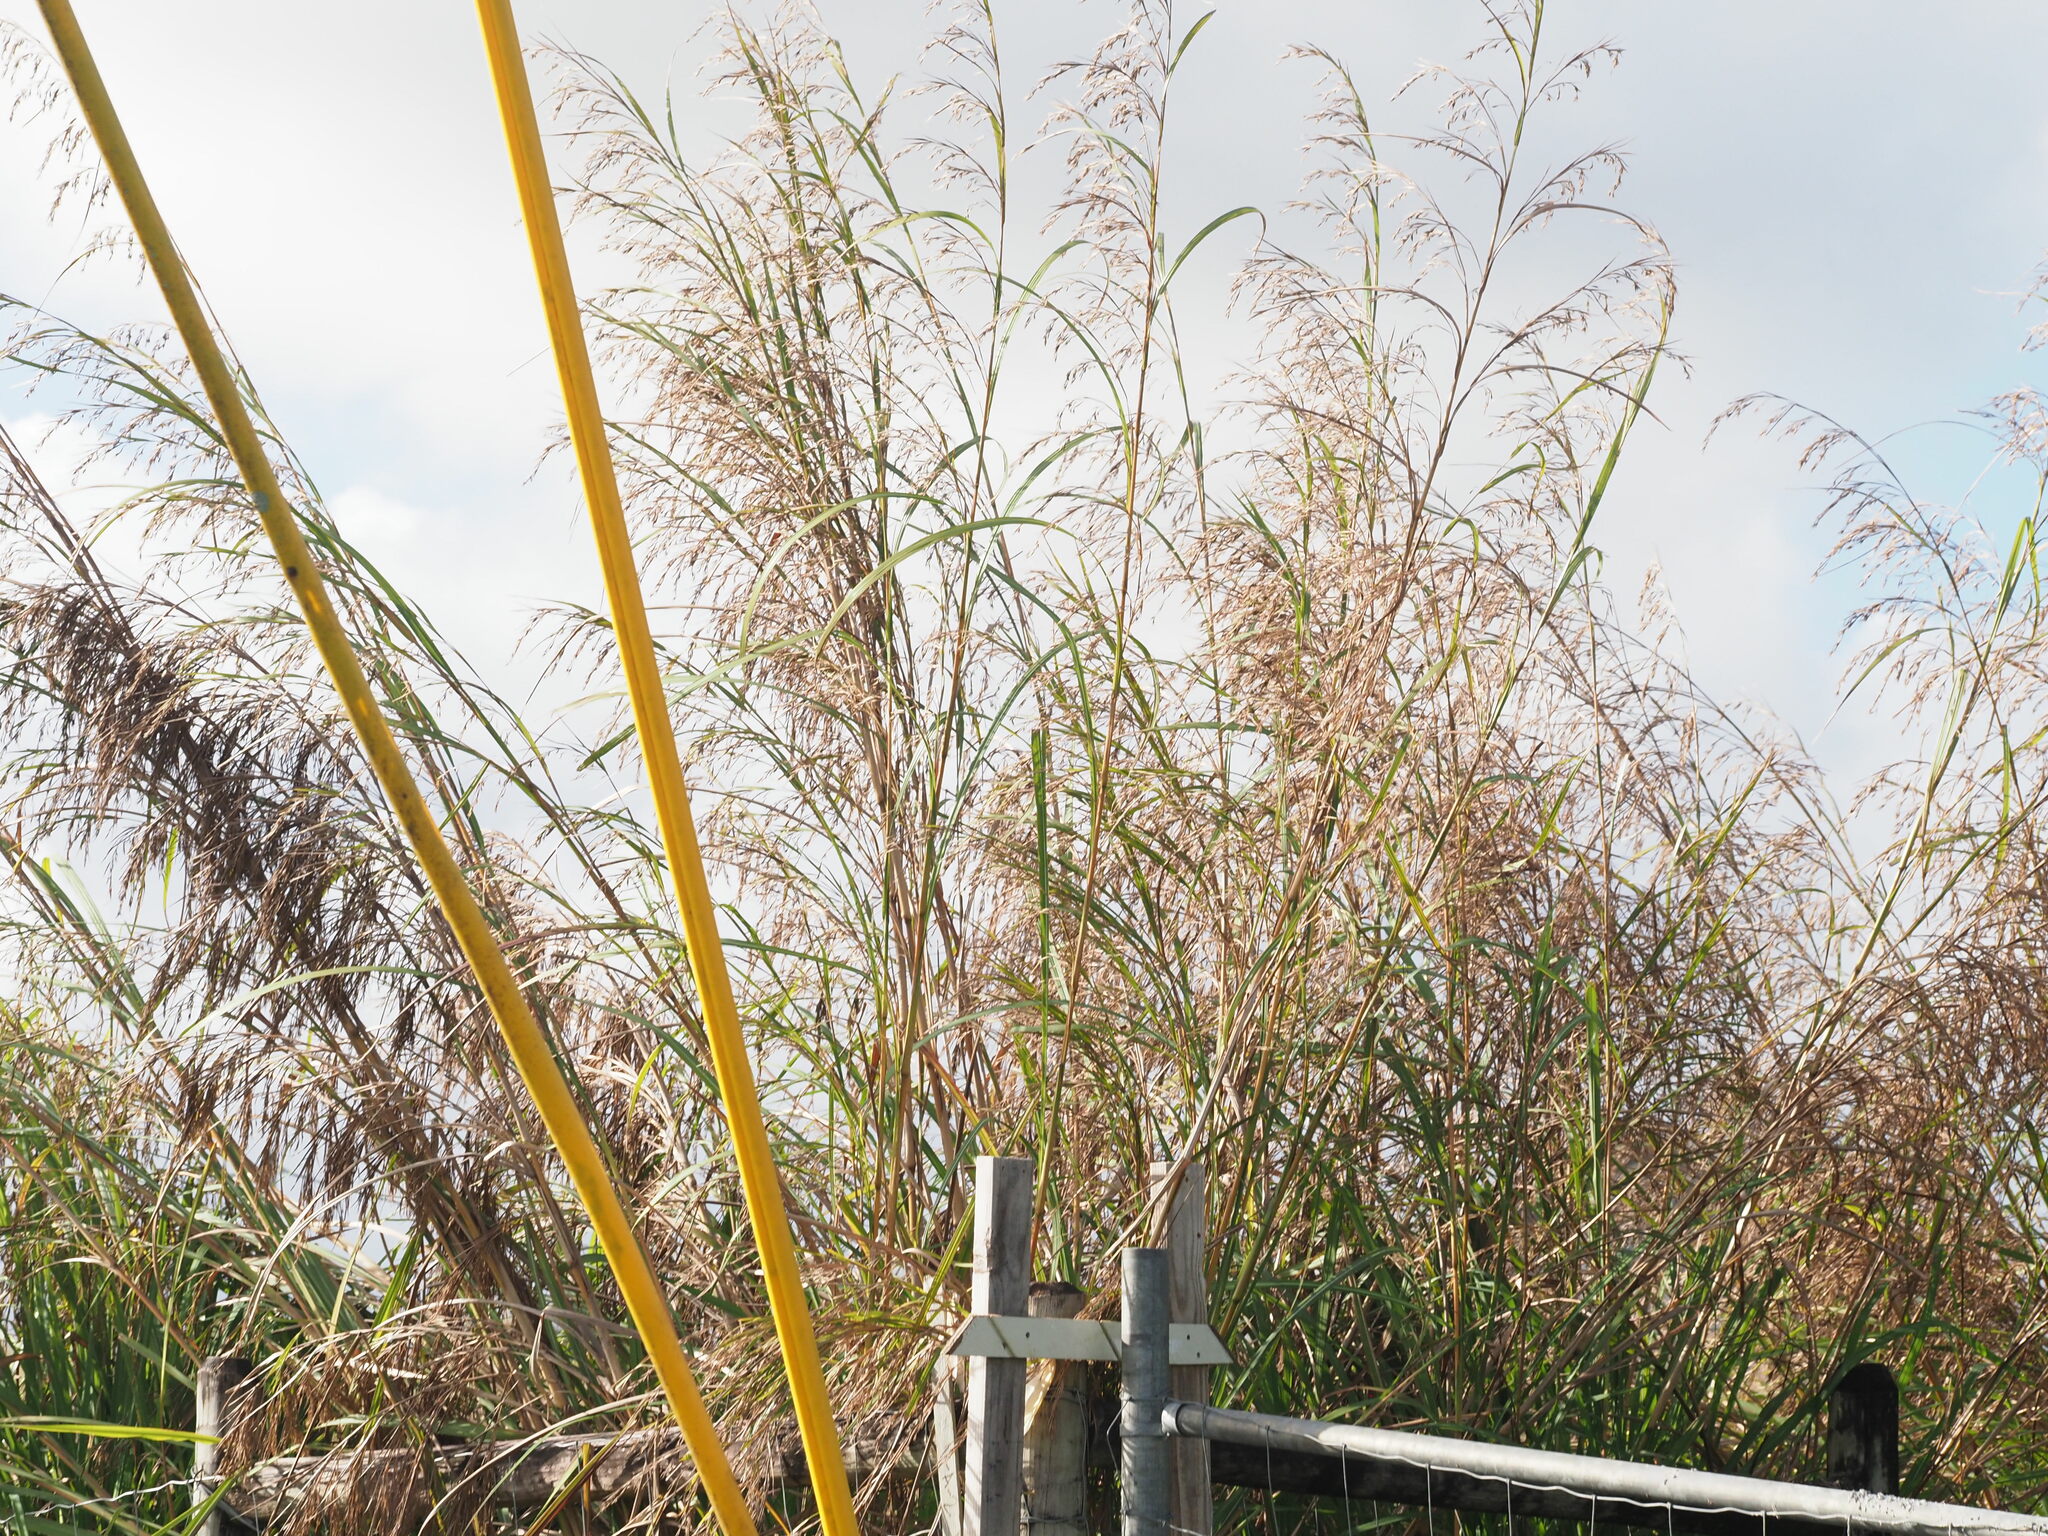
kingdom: Plantae
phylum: Tracheophyta
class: Liliopsida
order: Poales
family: Poaceae
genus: Themeda
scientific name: Themeda villosa
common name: Silky kangaroo grass
